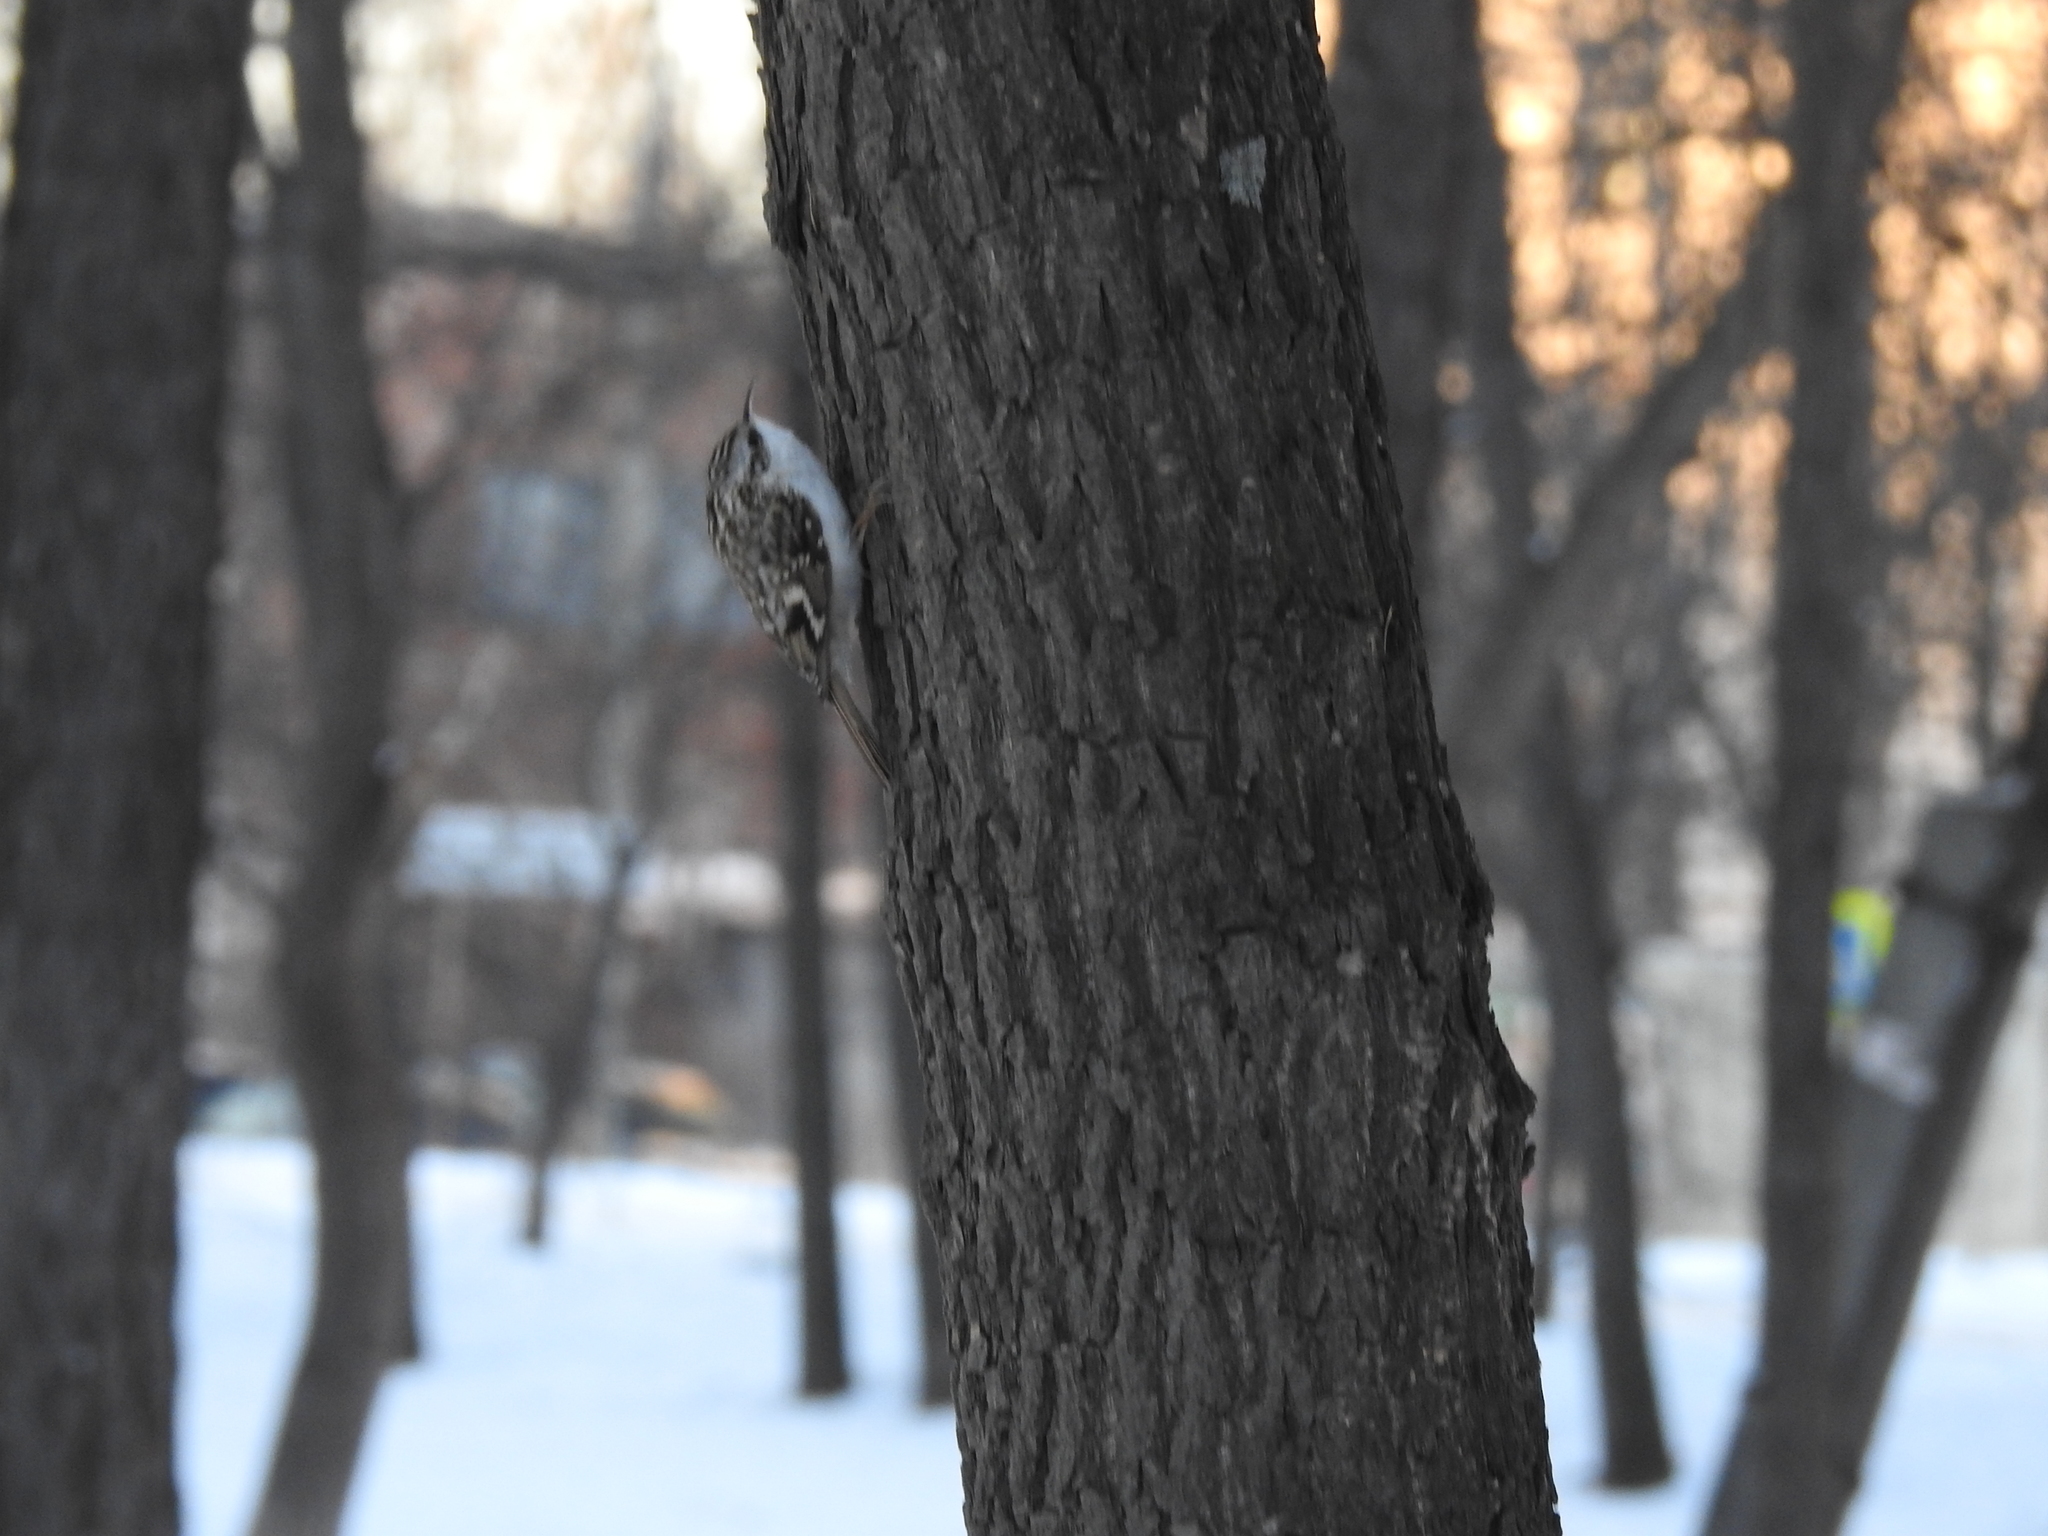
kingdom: Animalia
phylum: Chordata
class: Aves
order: Passeriformes
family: Certhiidae
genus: Certhia
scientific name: Certhia familiaris
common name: Eurasian treecreeper
